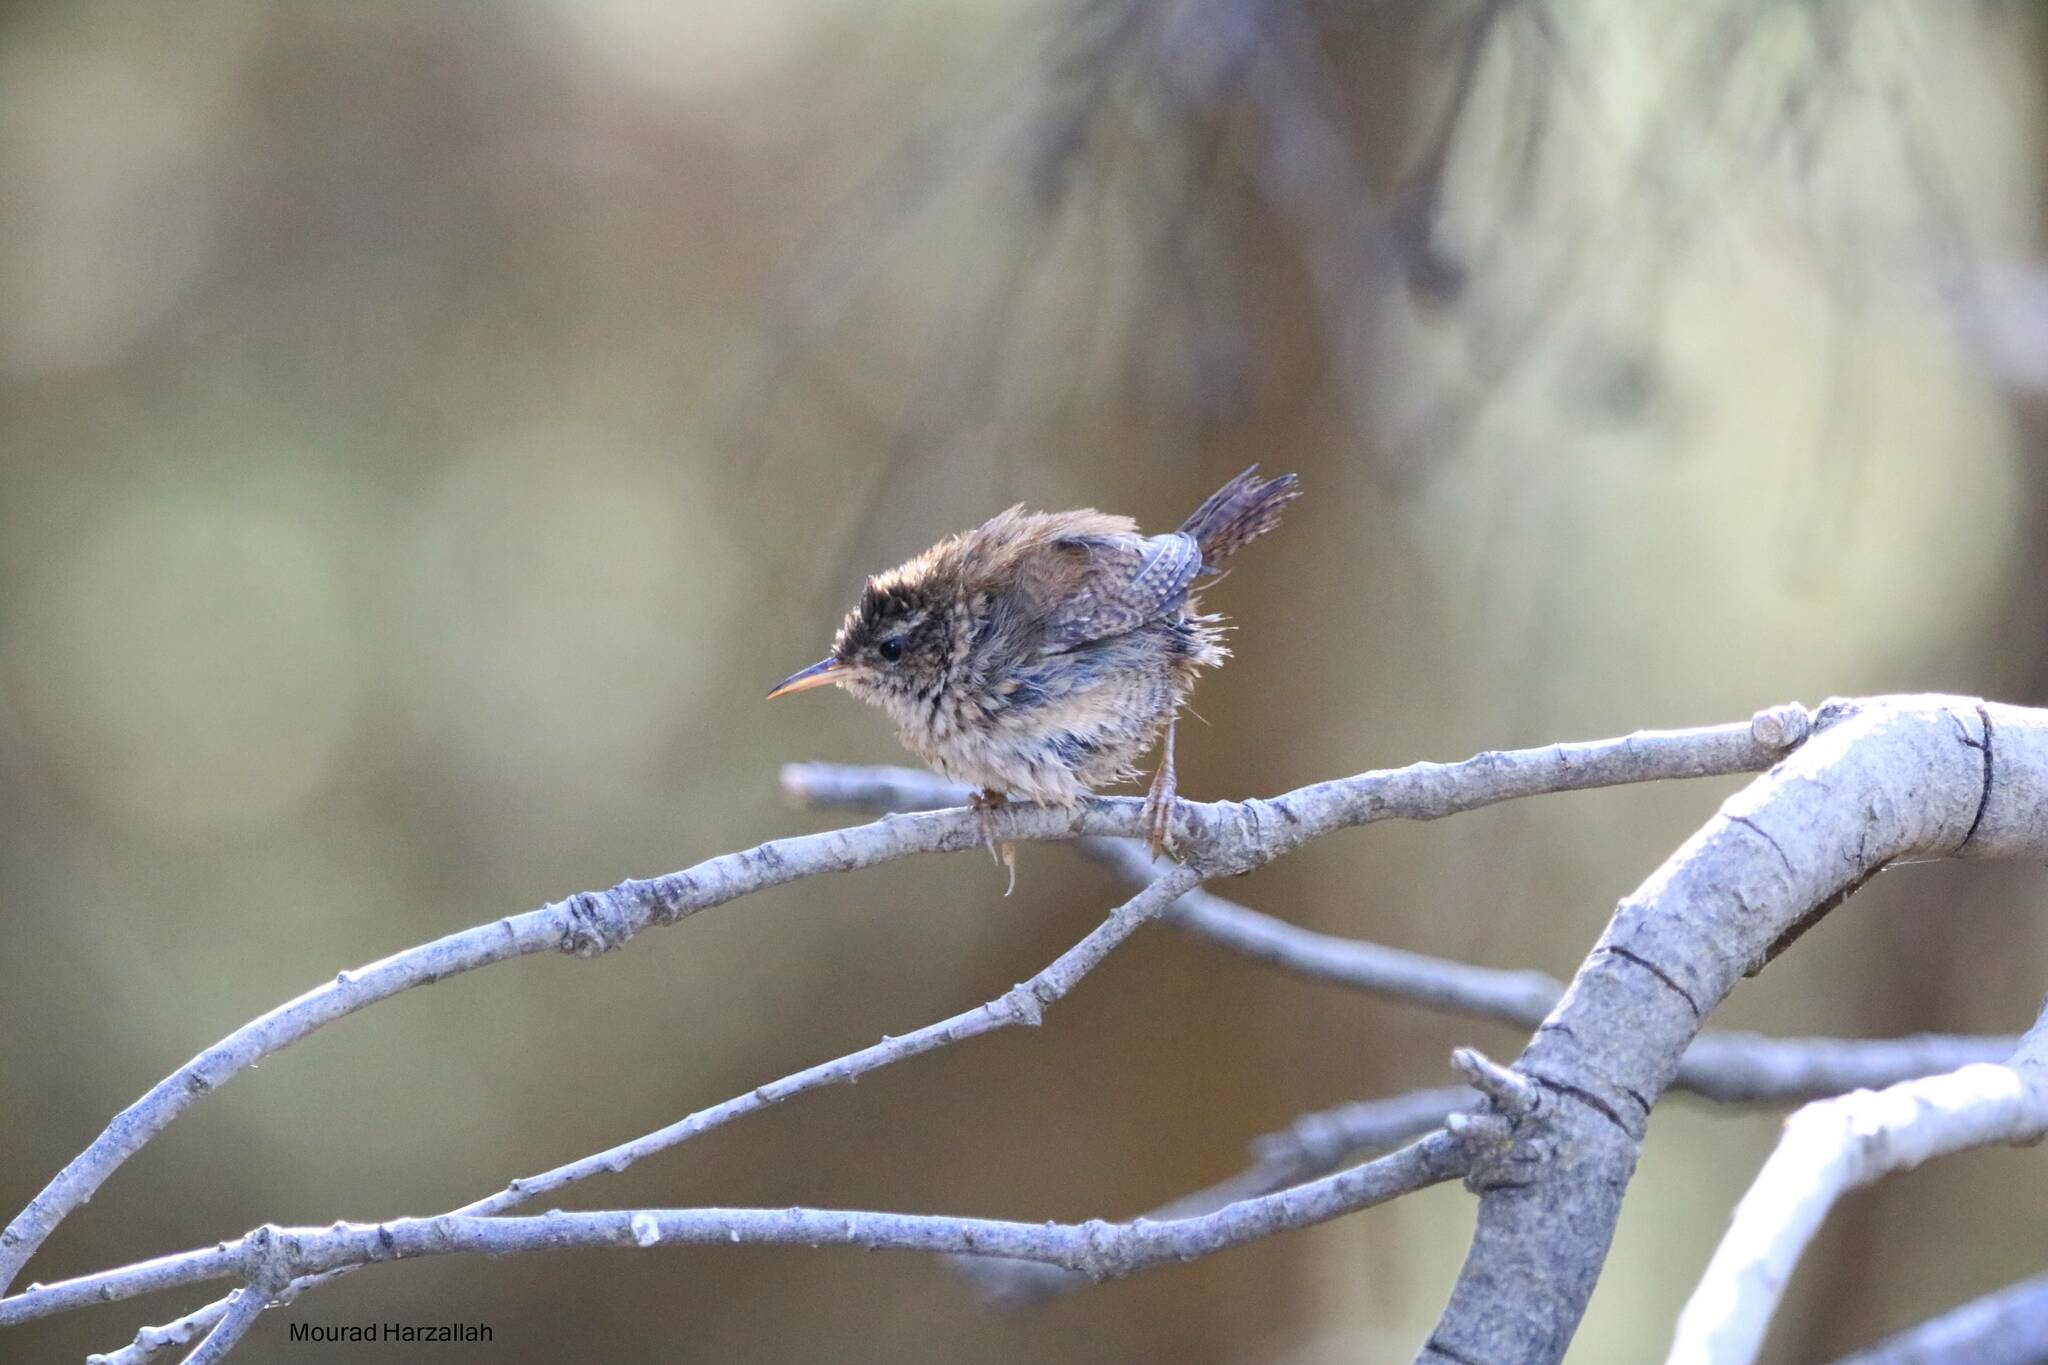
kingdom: Animalia
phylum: Chordata
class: Aves
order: Passeriformes
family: Troglodytidae
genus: Troglodytes
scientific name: Troglodytes troglodytes
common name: Eurasian wren
